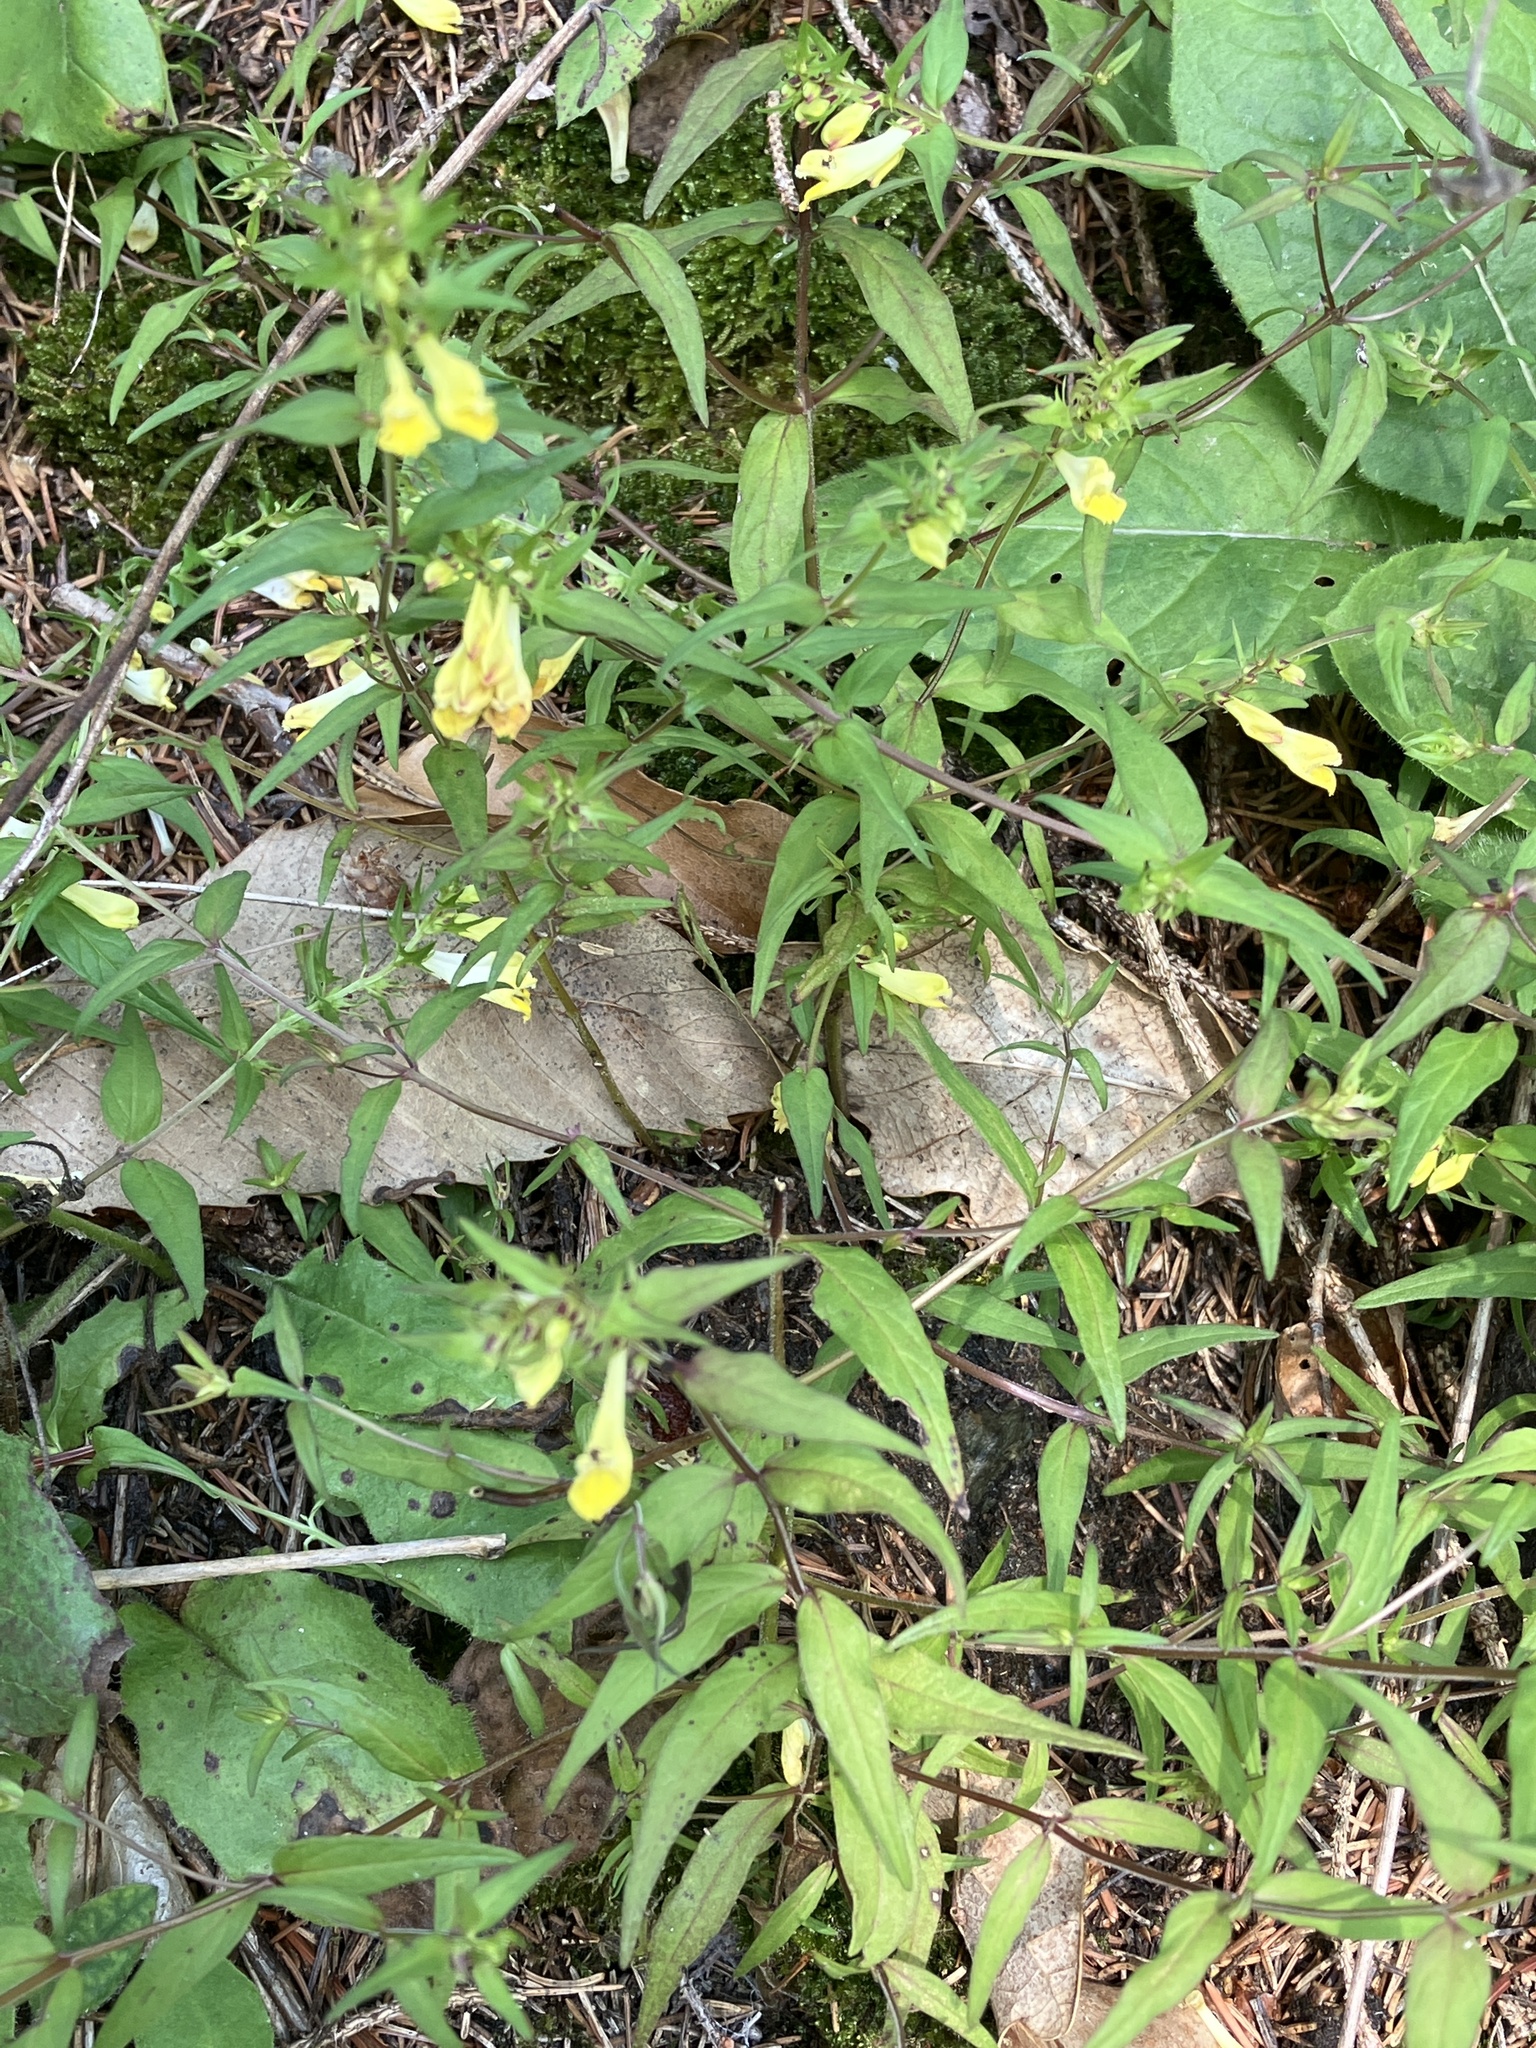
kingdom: Plantae
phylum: Tracheophyta
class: Magnoliopsida
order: Lamiales
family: Orobanchaceae
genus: Melampyrum
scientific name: Melampyrum pratense
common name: Common cow-wheat
